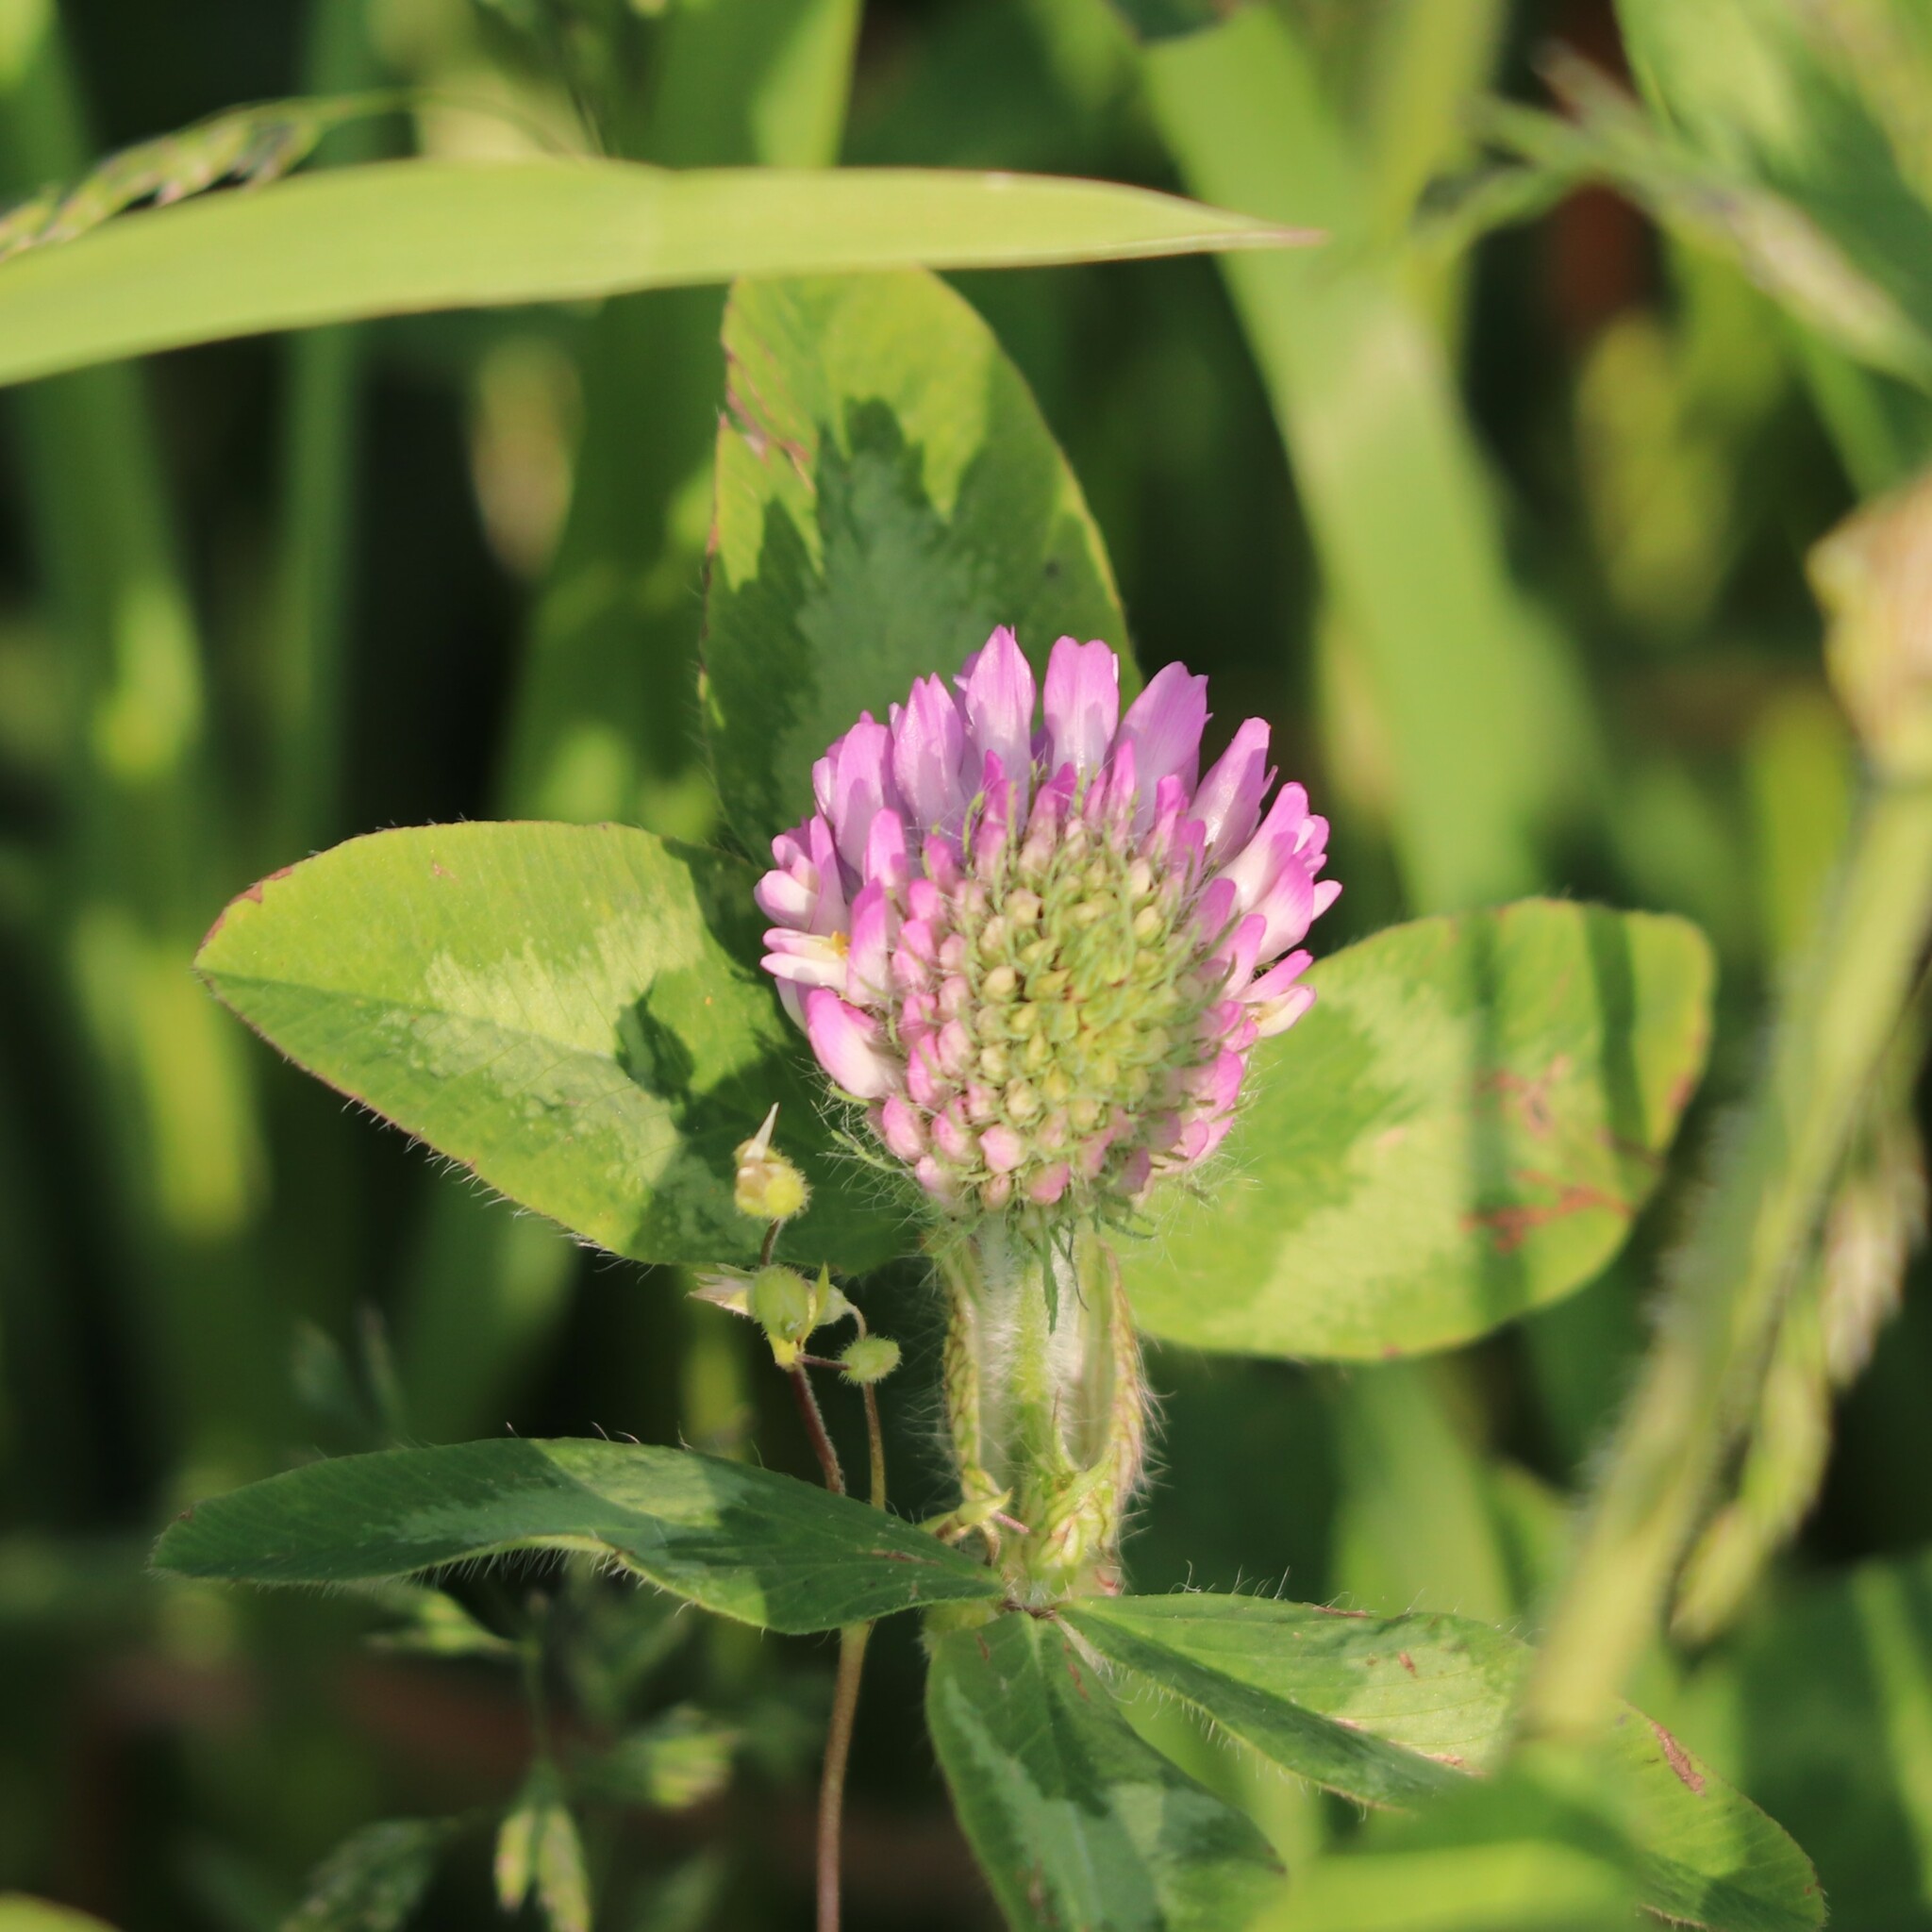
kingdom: Plantae
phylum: Tracheophyta
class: Magnoliopsida
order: Fabales
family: Fabaceae
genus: Trifolium
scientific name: Trifolium pratense
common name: Red clover
